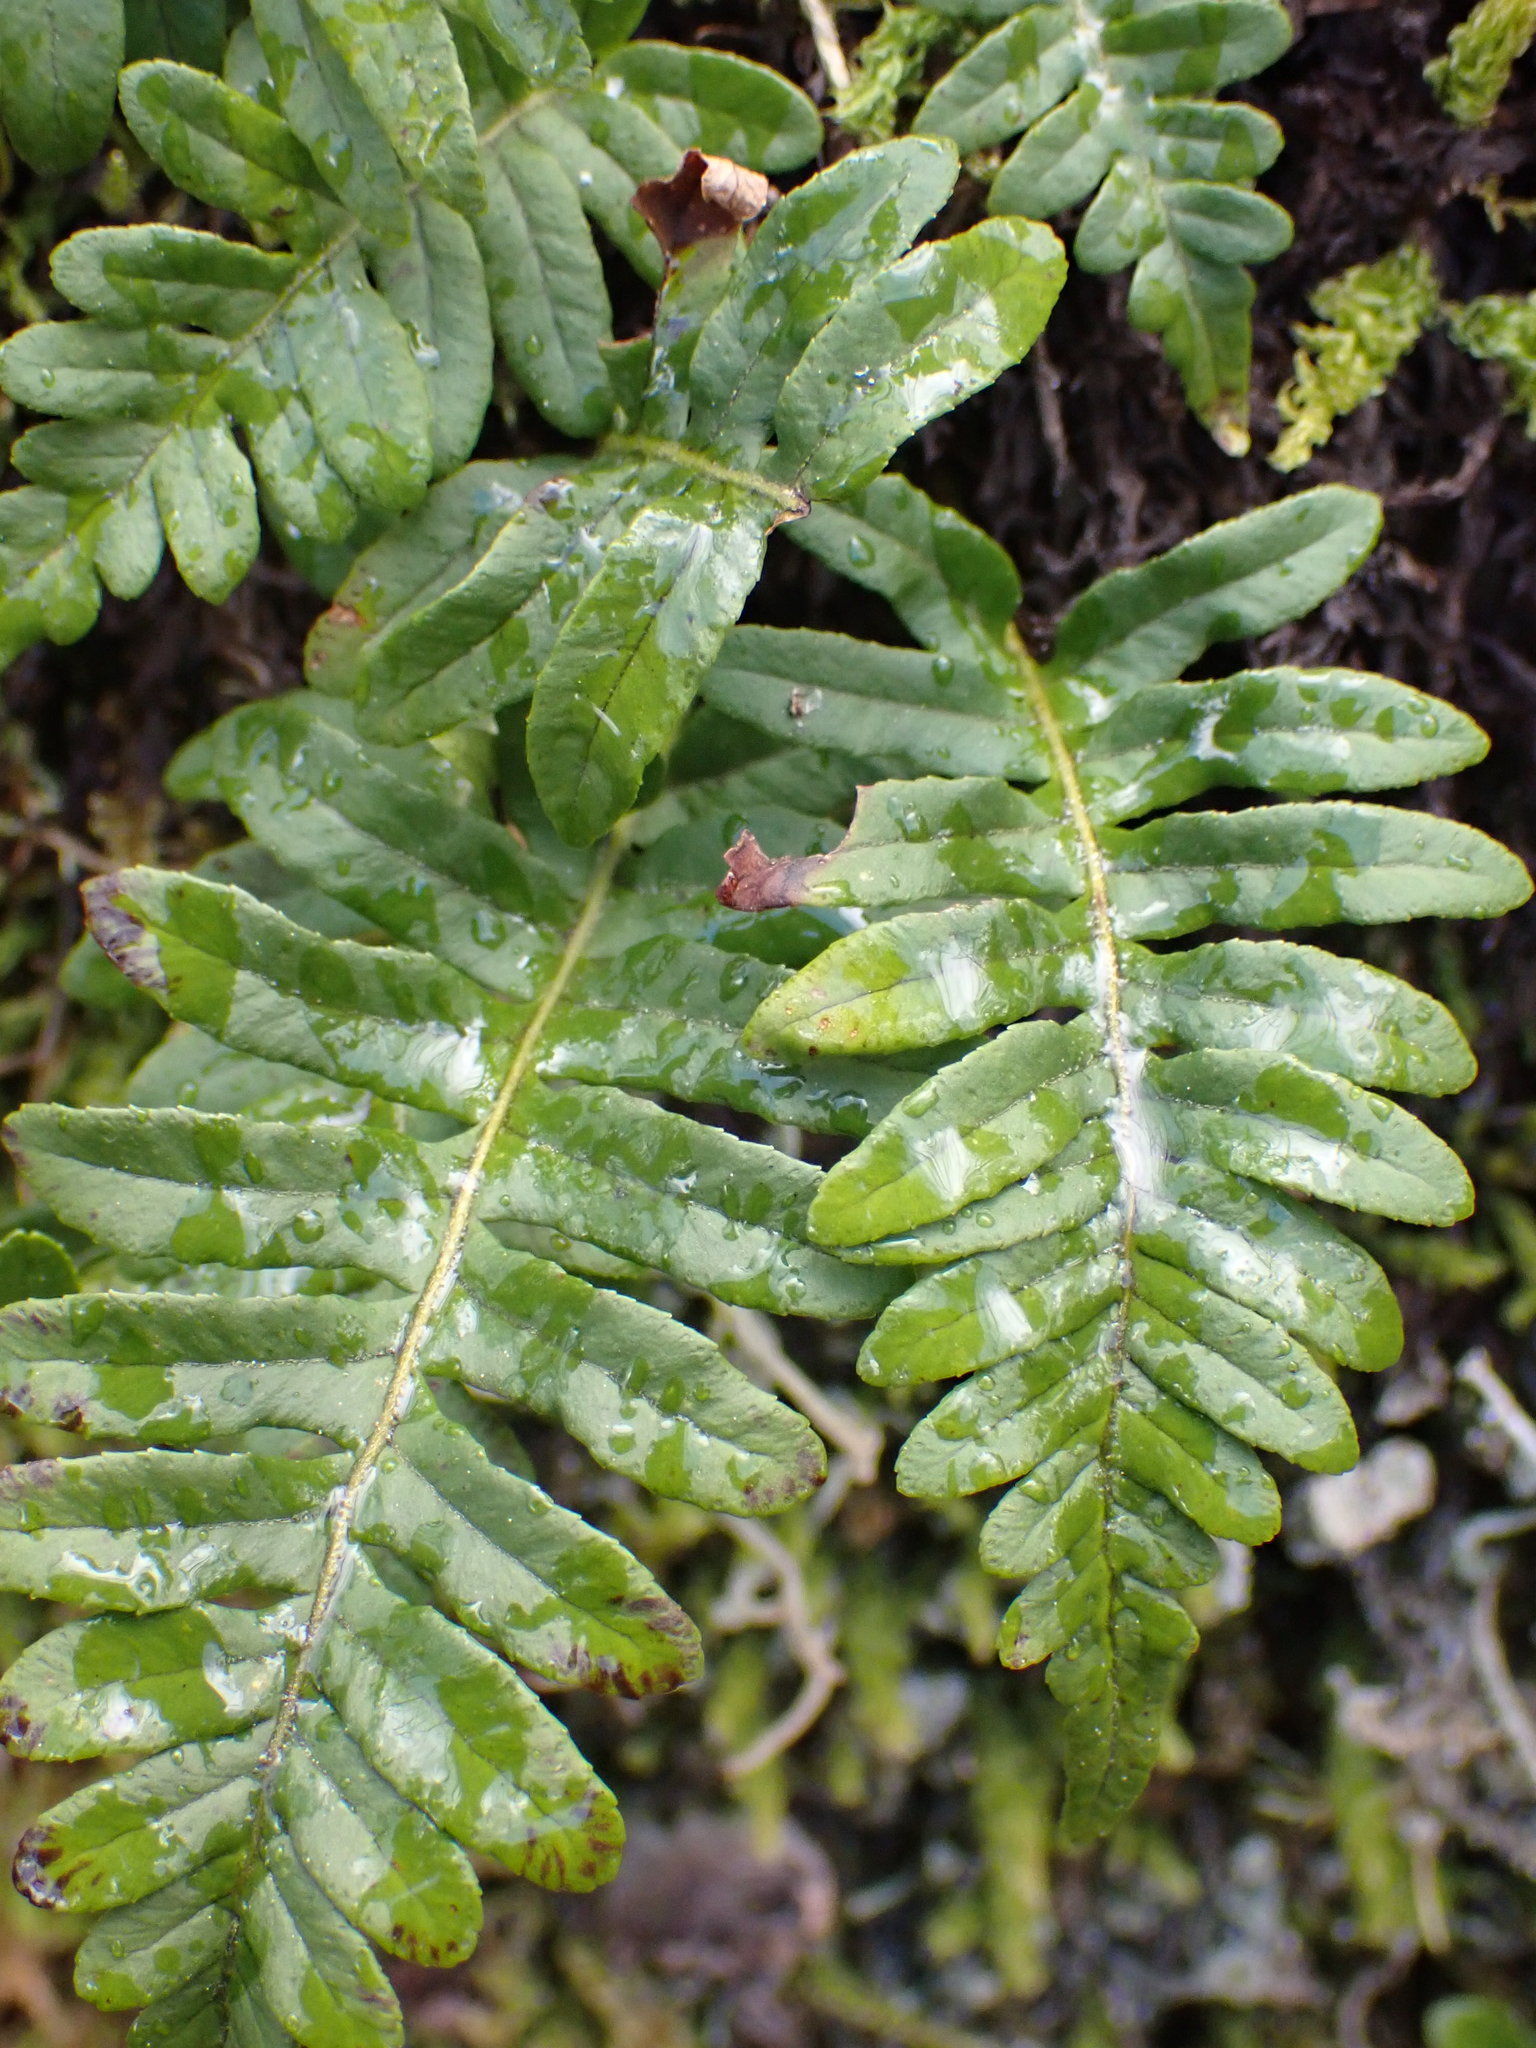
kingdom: Plantae
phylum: Tracheophyta
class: Polypodiopsida
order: Polypodiales
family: Polypodiaceae
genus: Polypodium
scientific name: Polypodium glycyrrhiza
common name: Licorice fern
